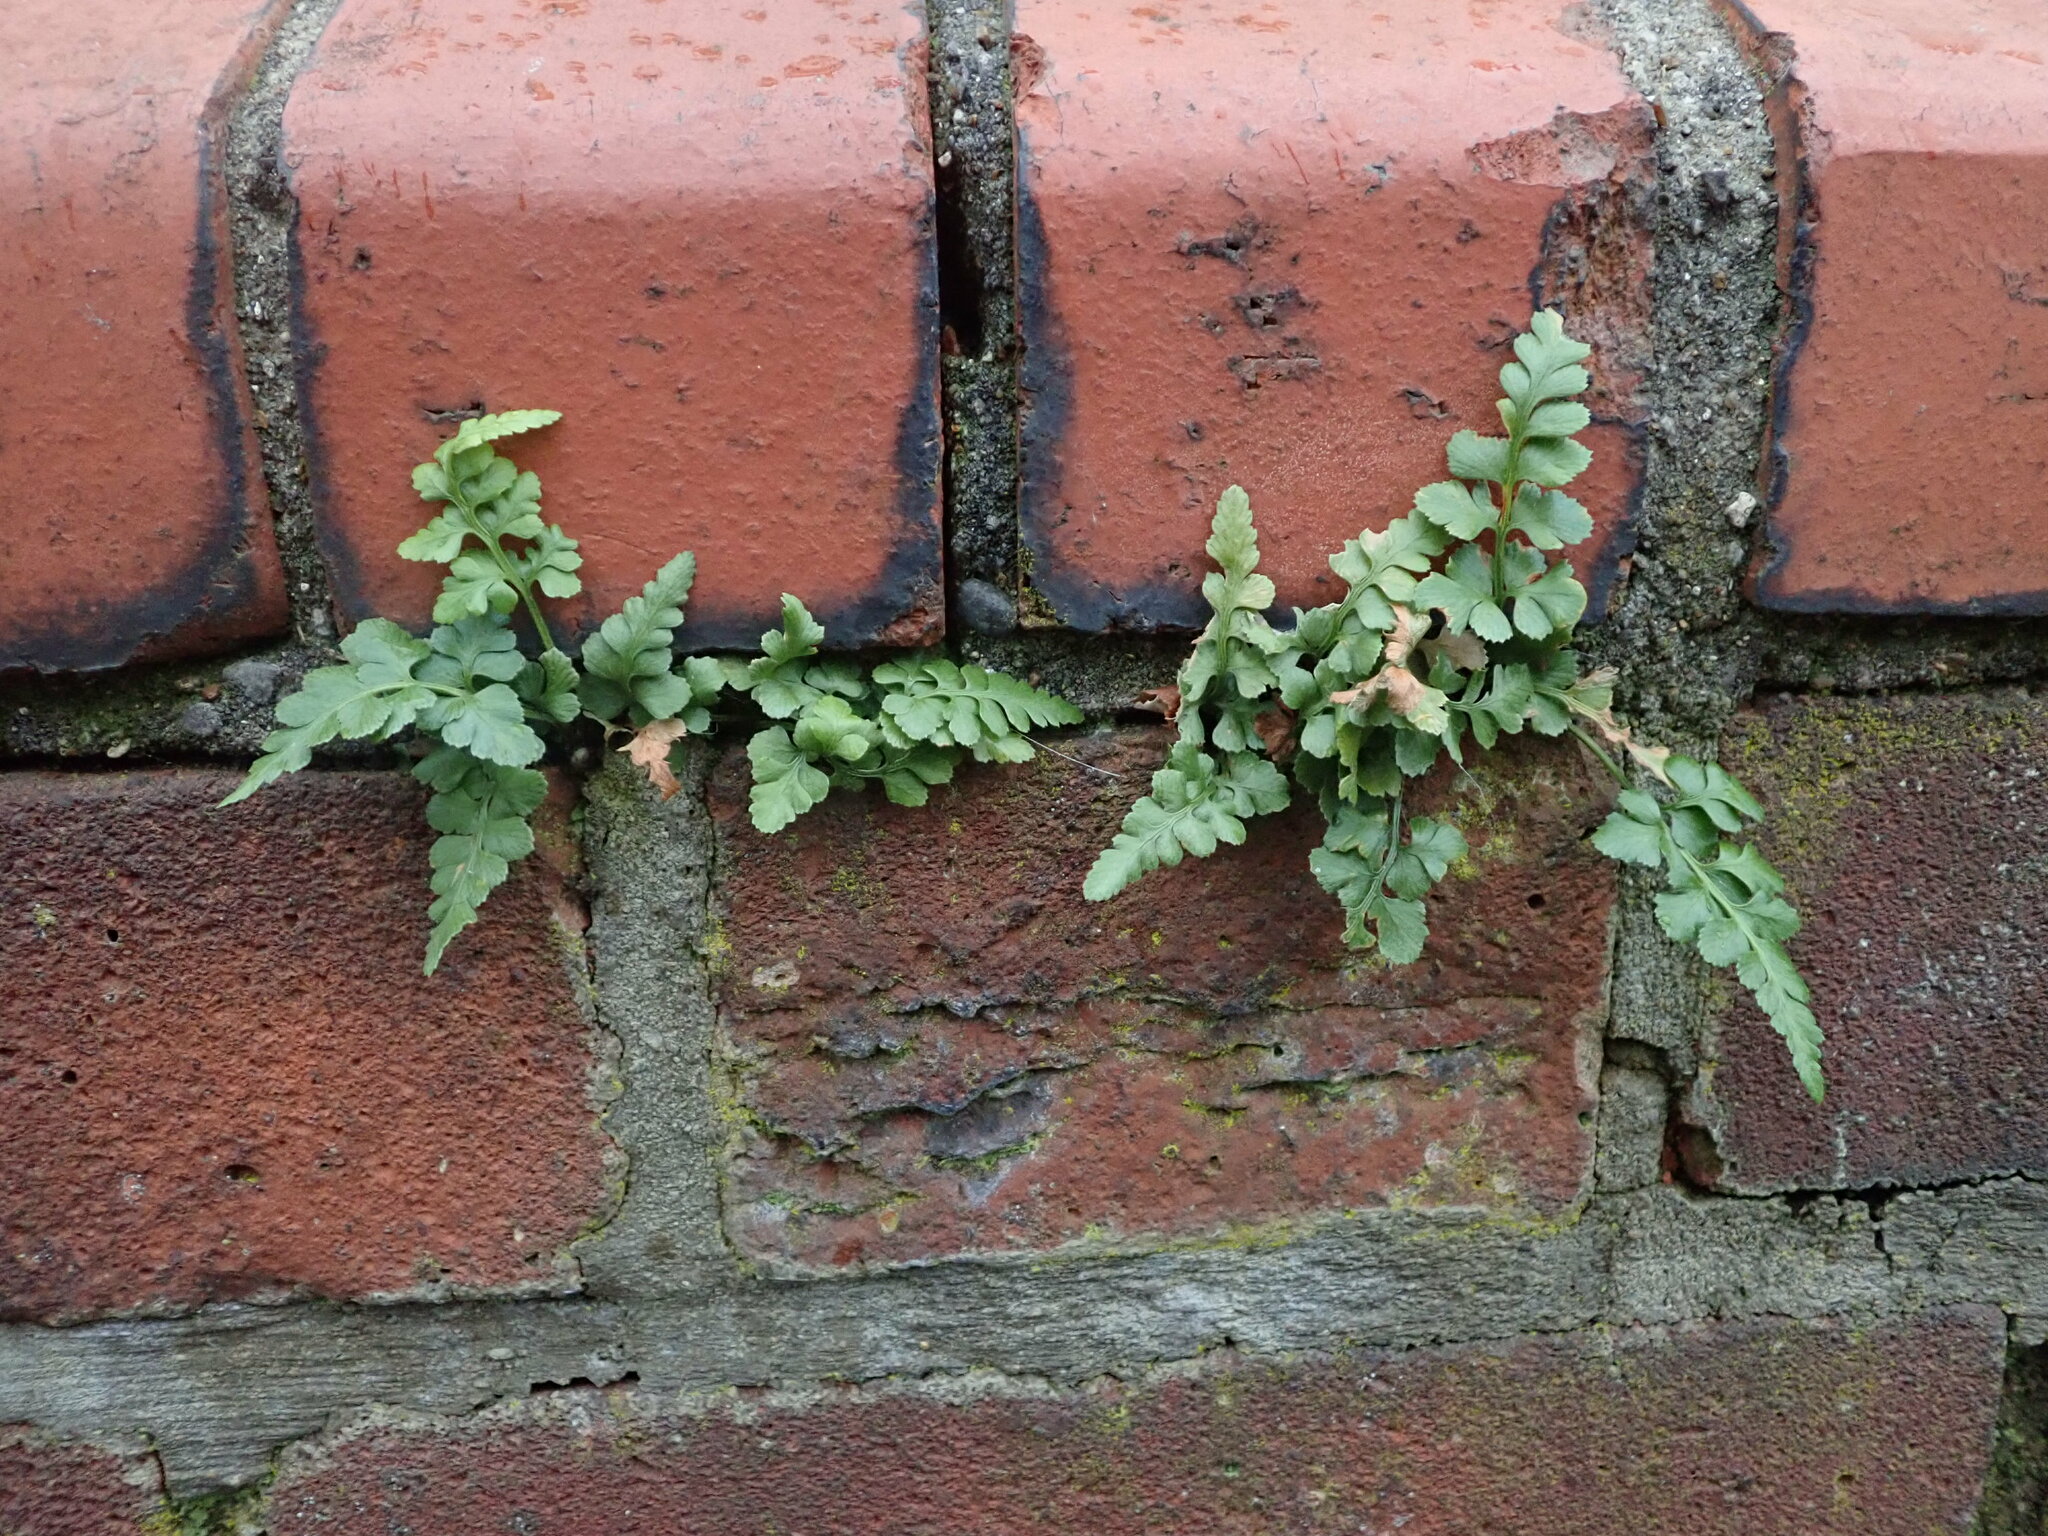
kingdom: Plantae
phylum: Tracheophyta
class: Polypodiopsida
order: Polypodiales
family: Aspleniaceae
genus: Asplenium
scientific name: Asplenium adiantum-nigrum
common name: Black spleenwort
